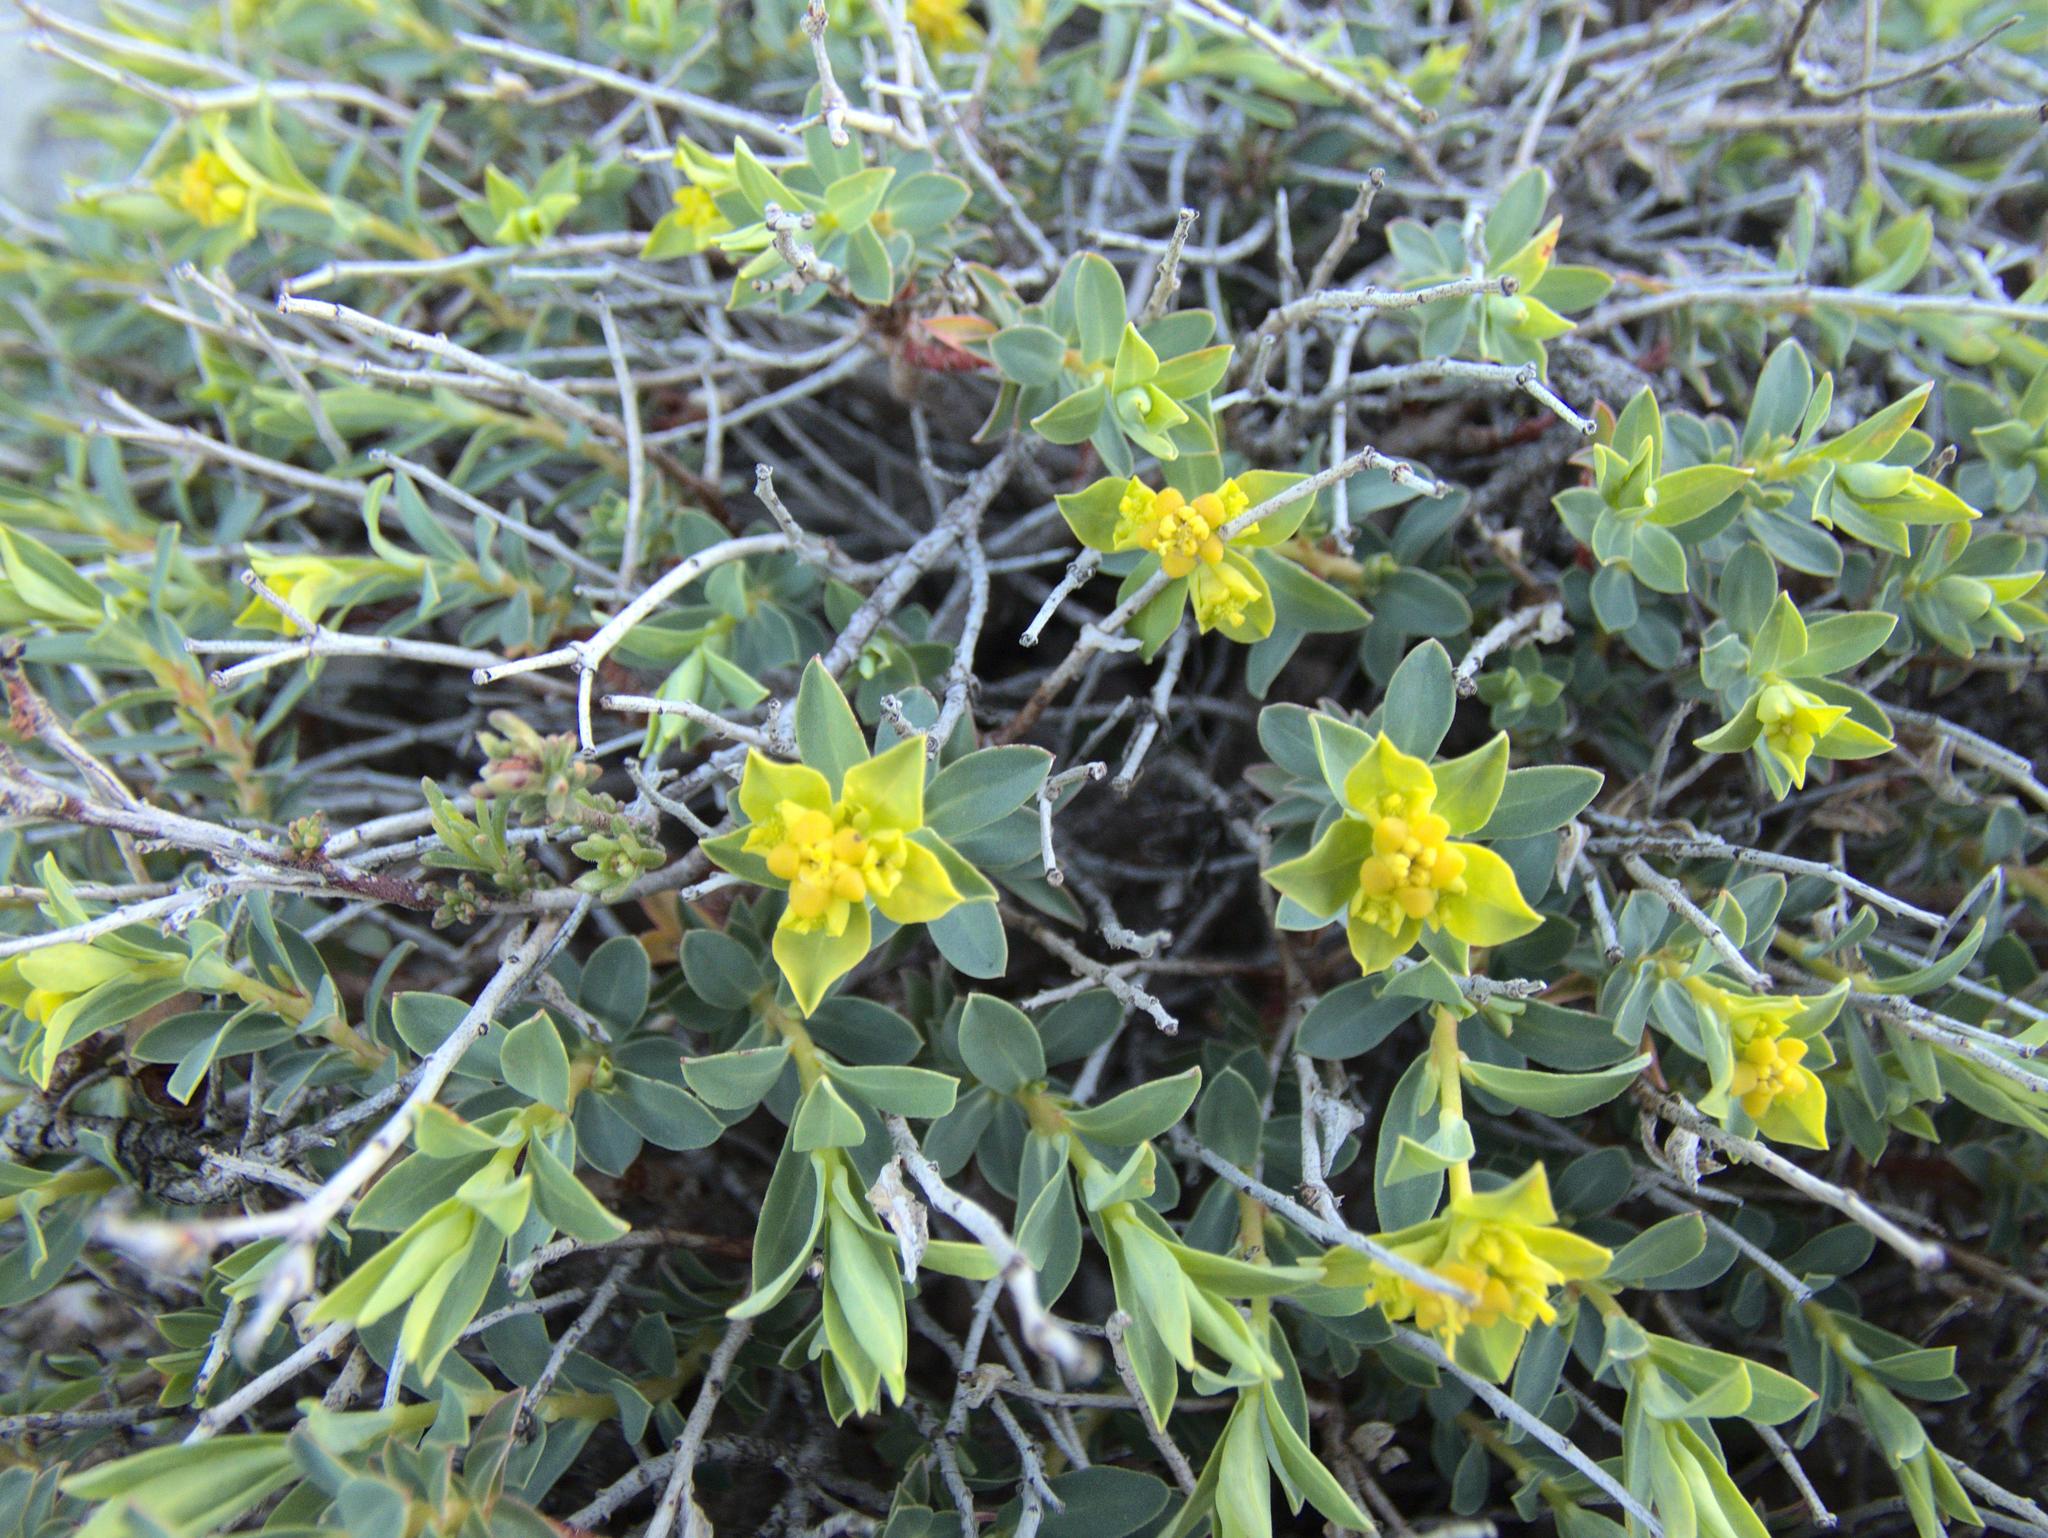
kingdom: Plantae
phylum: Tracheophyta
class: Magnoliopsida
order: Malpighiales
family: Euphorbiaceae
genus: Euphorbia
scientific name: Euphorbia spinosa
